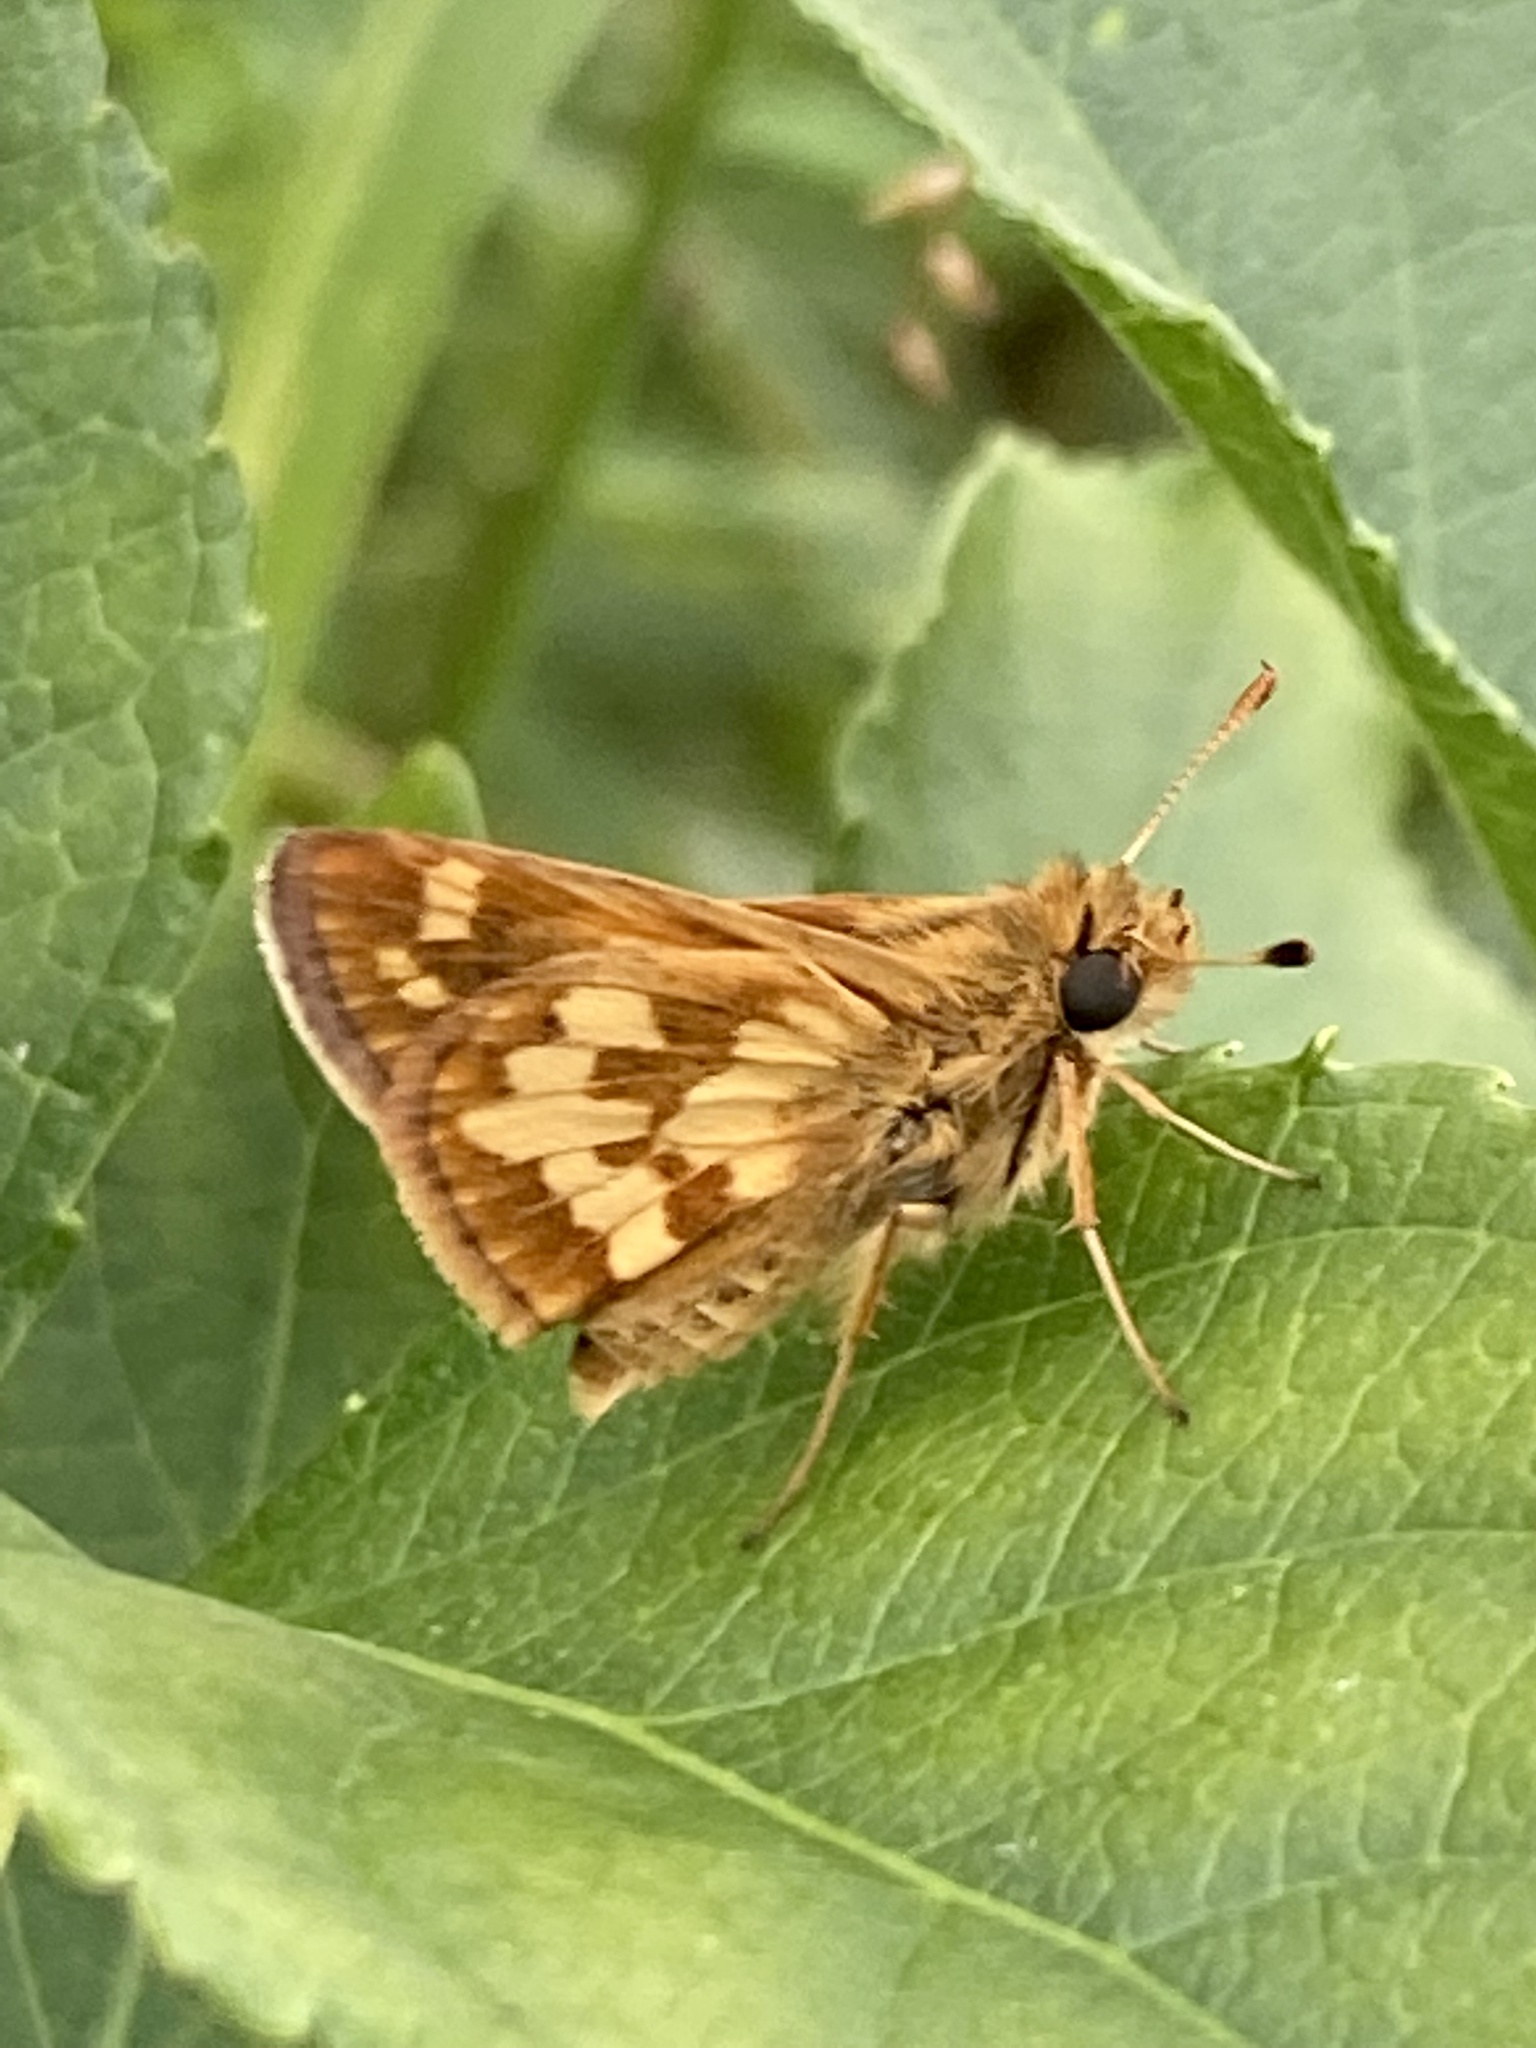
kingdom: Animalia
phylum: Arthropoda
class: Insecta
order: Lepidoptera
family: Hesperiidae
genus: Polites
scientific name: Polites coras
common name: Peck's skipper
